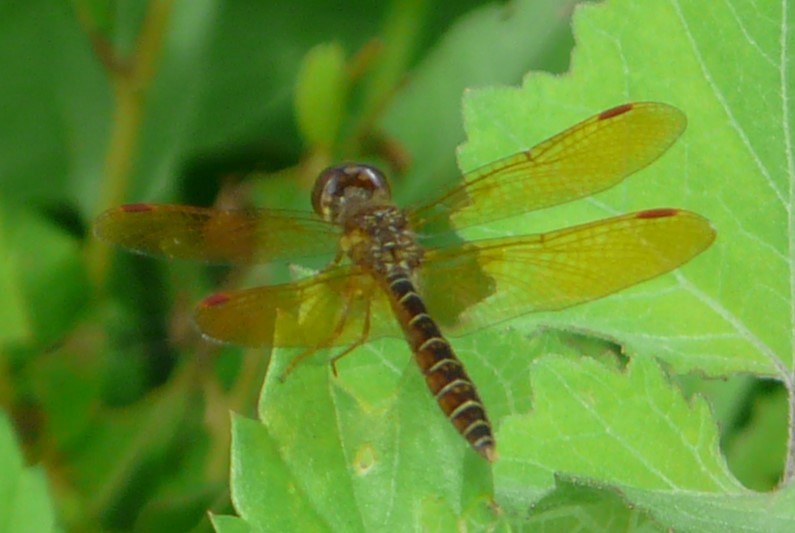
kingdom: Animalia
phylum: Arthropoda
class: Insecta
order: Odonata
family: Libellulidae
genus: Perithemis
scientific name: Perithemis tenera
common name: Eastern amberwing
